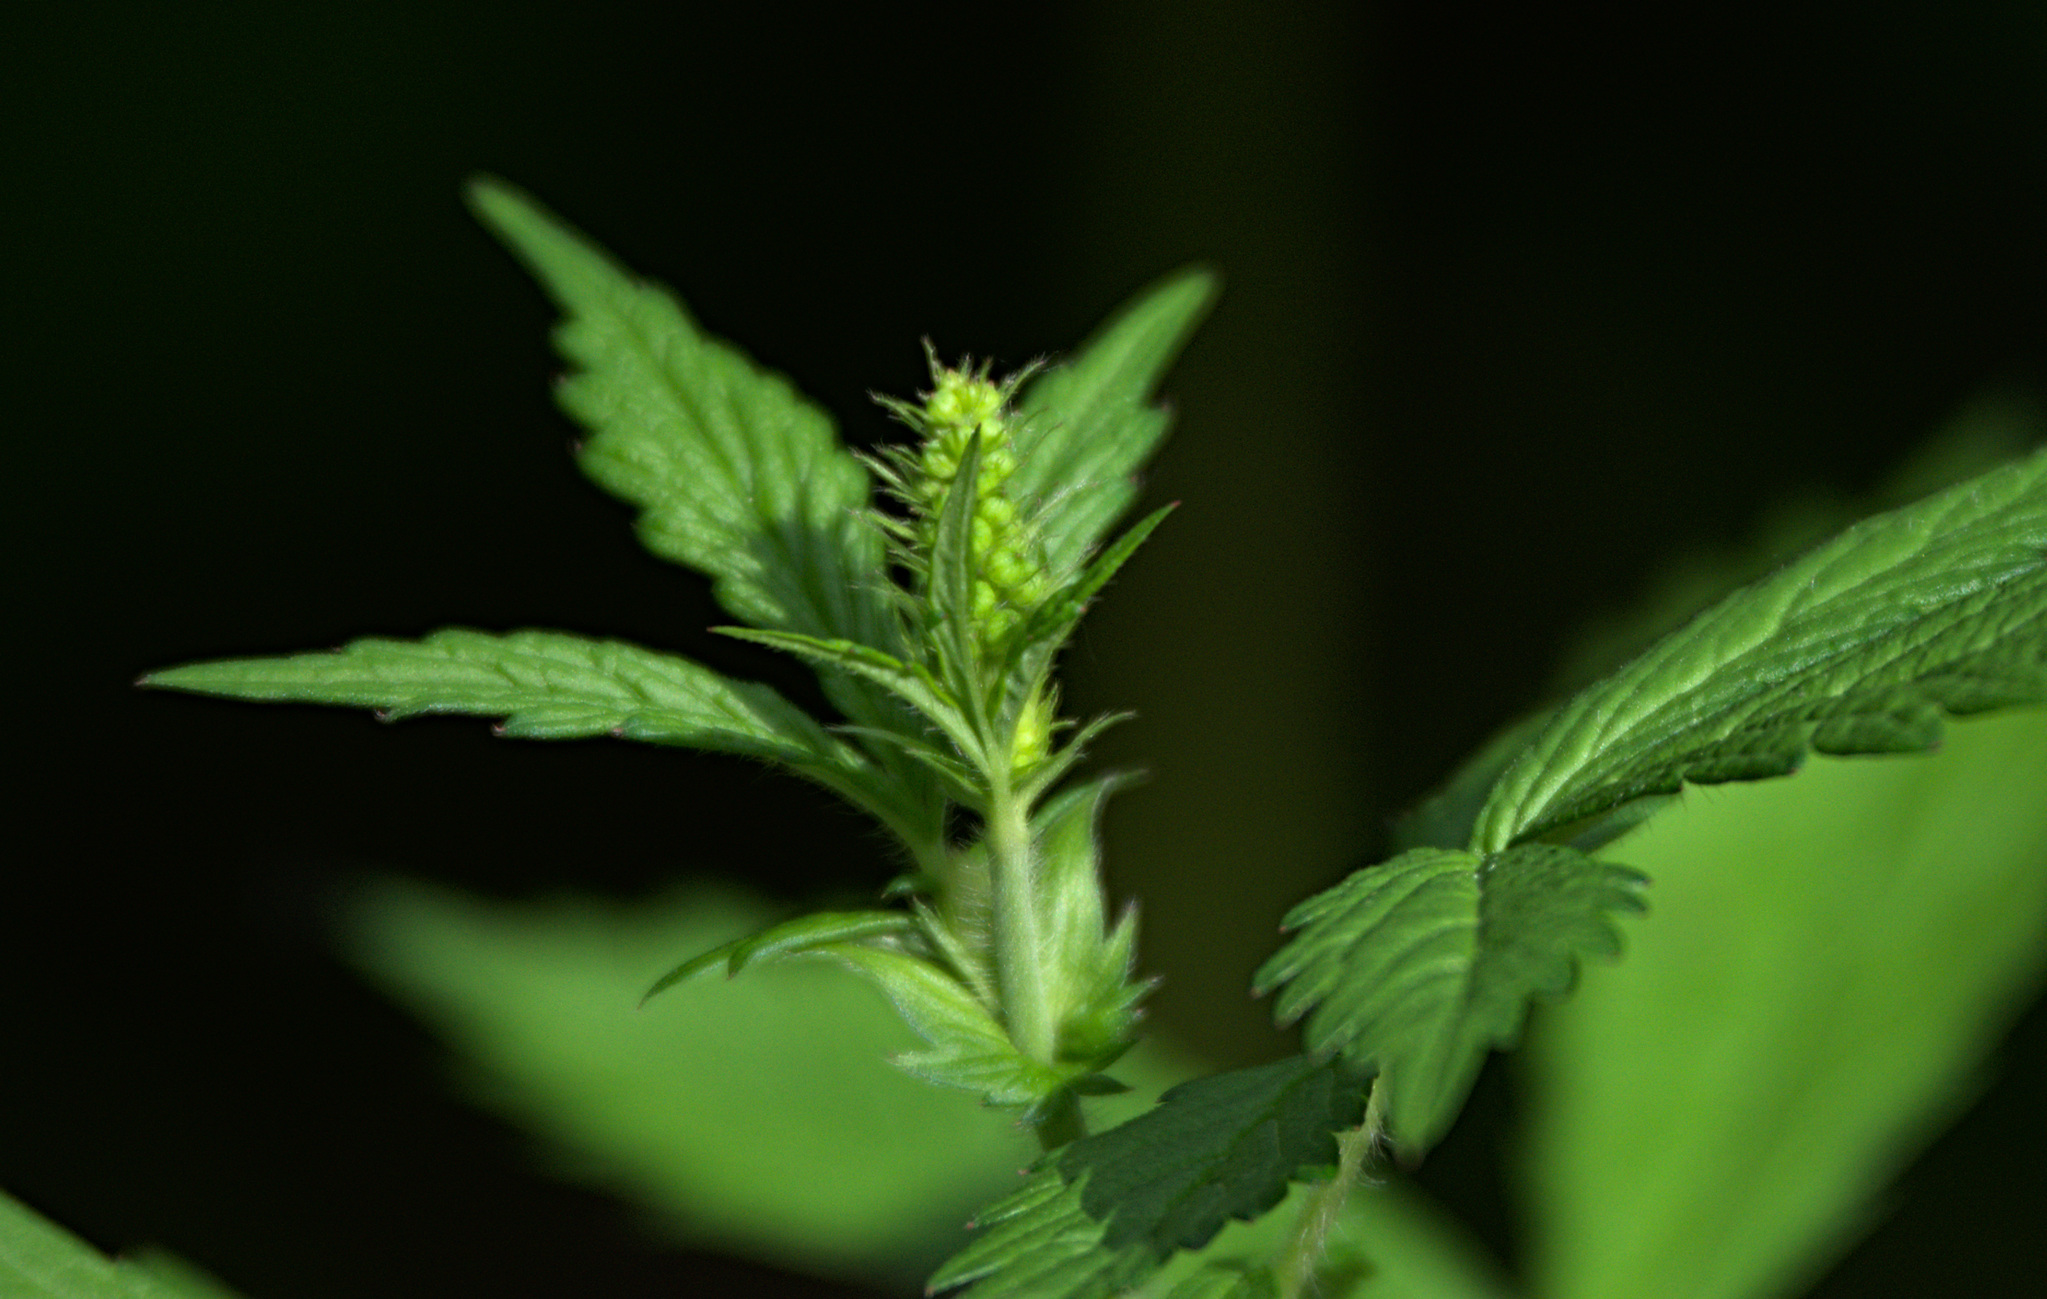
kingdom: Plantae
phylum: Tracheophyta
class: Magnoliopsida
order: Rosales
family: Rosaceae
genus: Agrimonia
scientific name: Agrimonia pilosa
